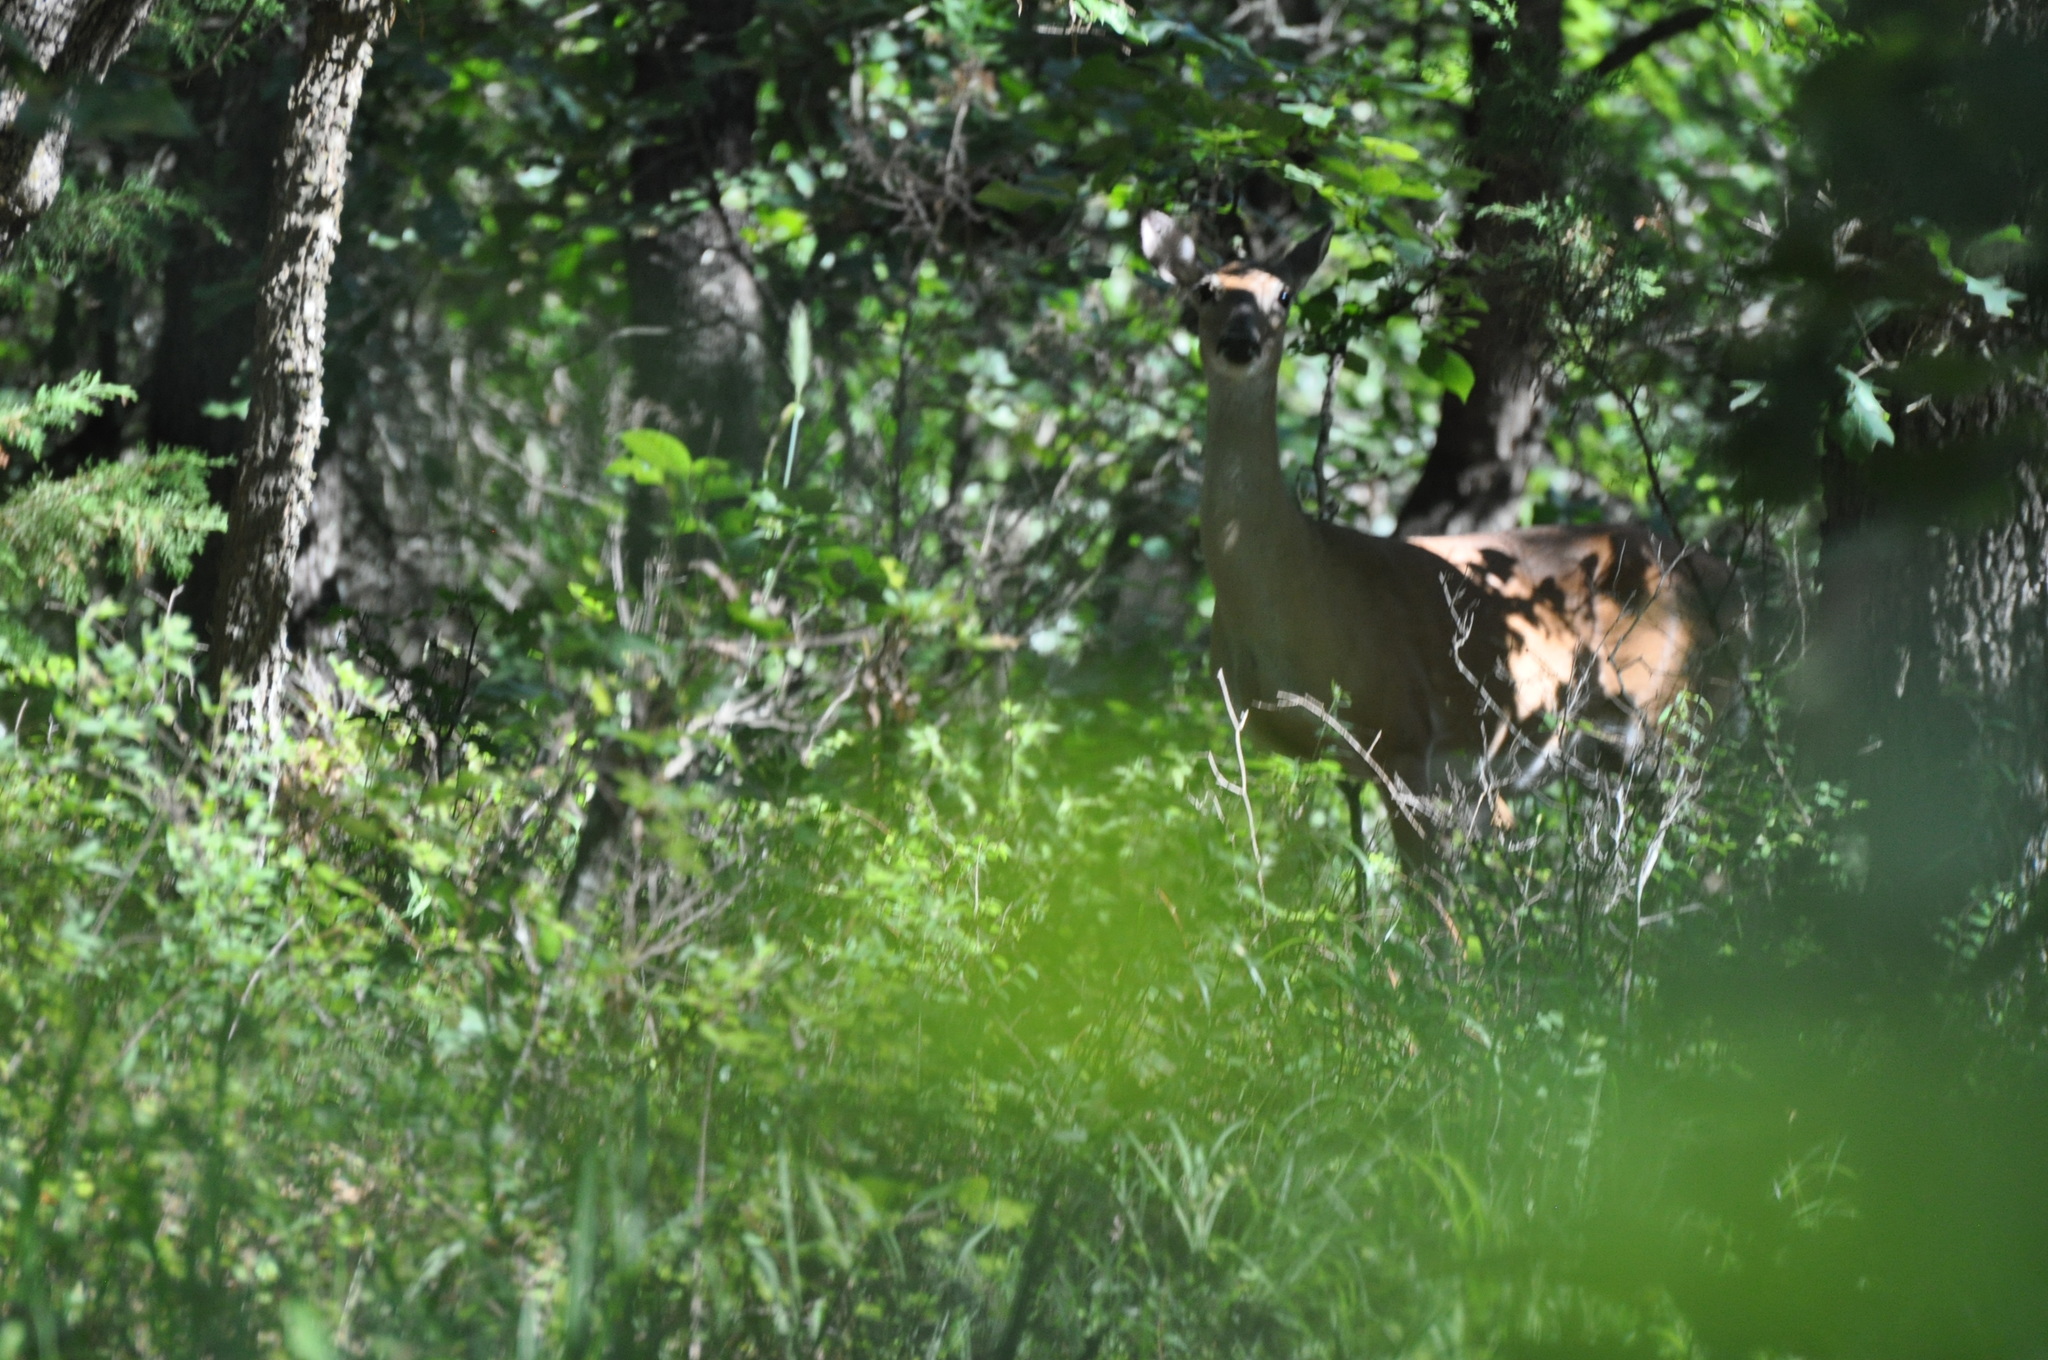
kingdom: Animalia
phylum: Chordata
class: Mammalia
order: Artiodactyla
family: Cervidae
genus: Odocoileus
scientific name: Odocoileus virginianus
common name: White-tailed deer
